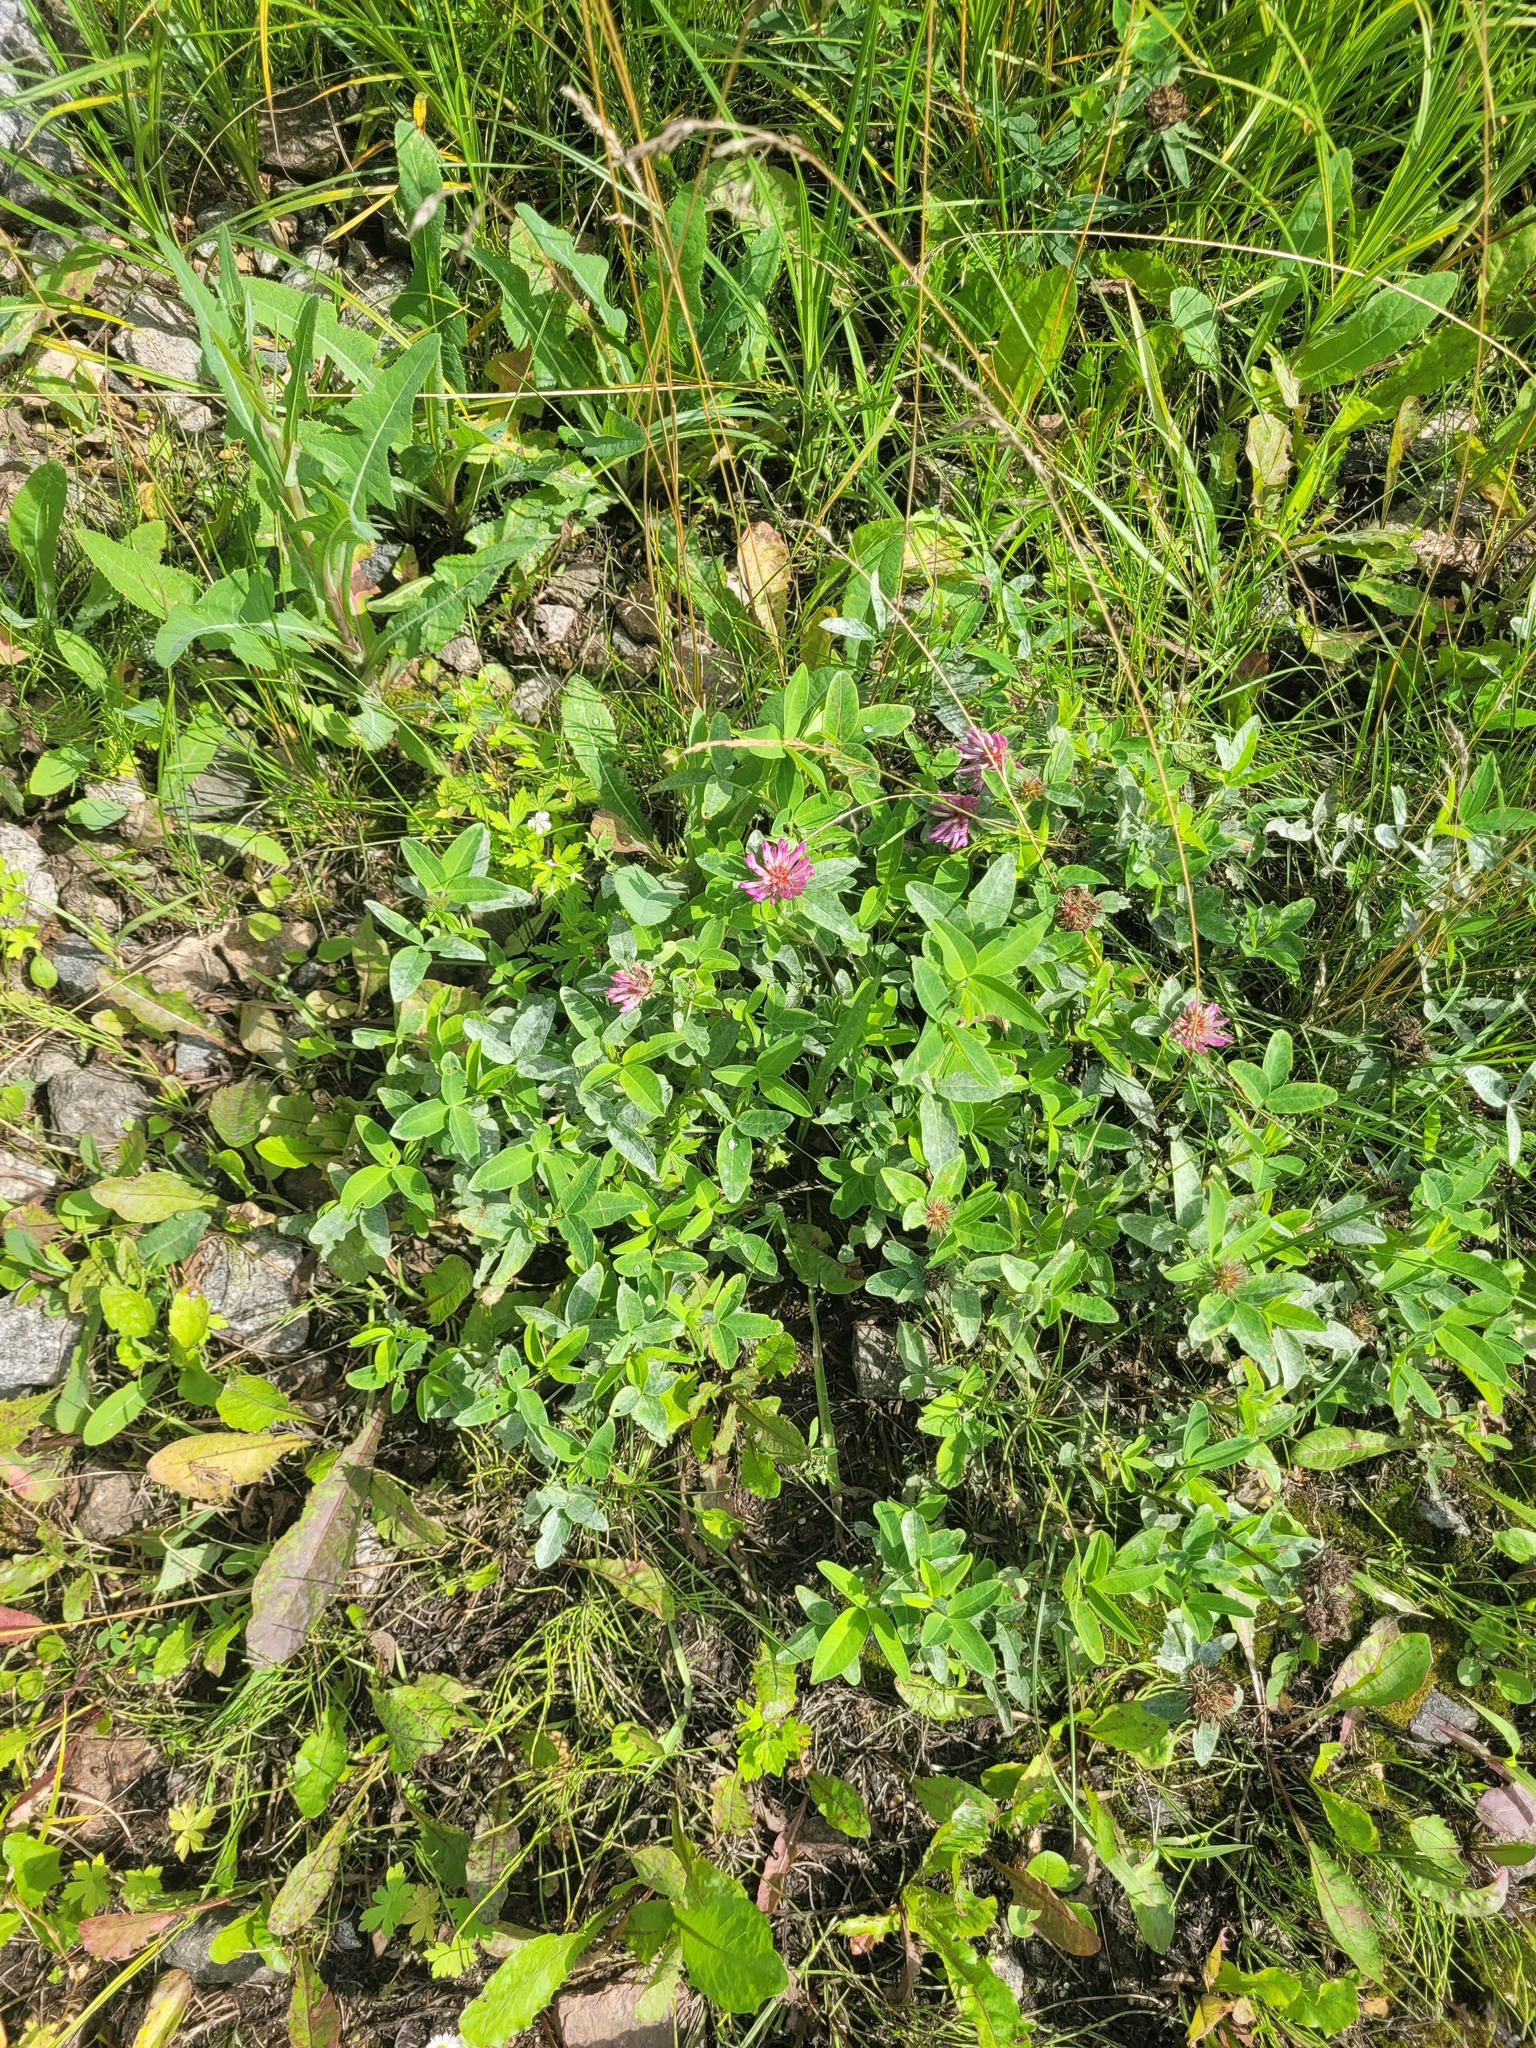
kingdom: Plantae
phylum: Tracheophyta
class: Magnoliopsida
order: Fabales
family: Fabaceae
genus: Trifolium
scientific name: Trifolium medium
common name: Zigzag clover
